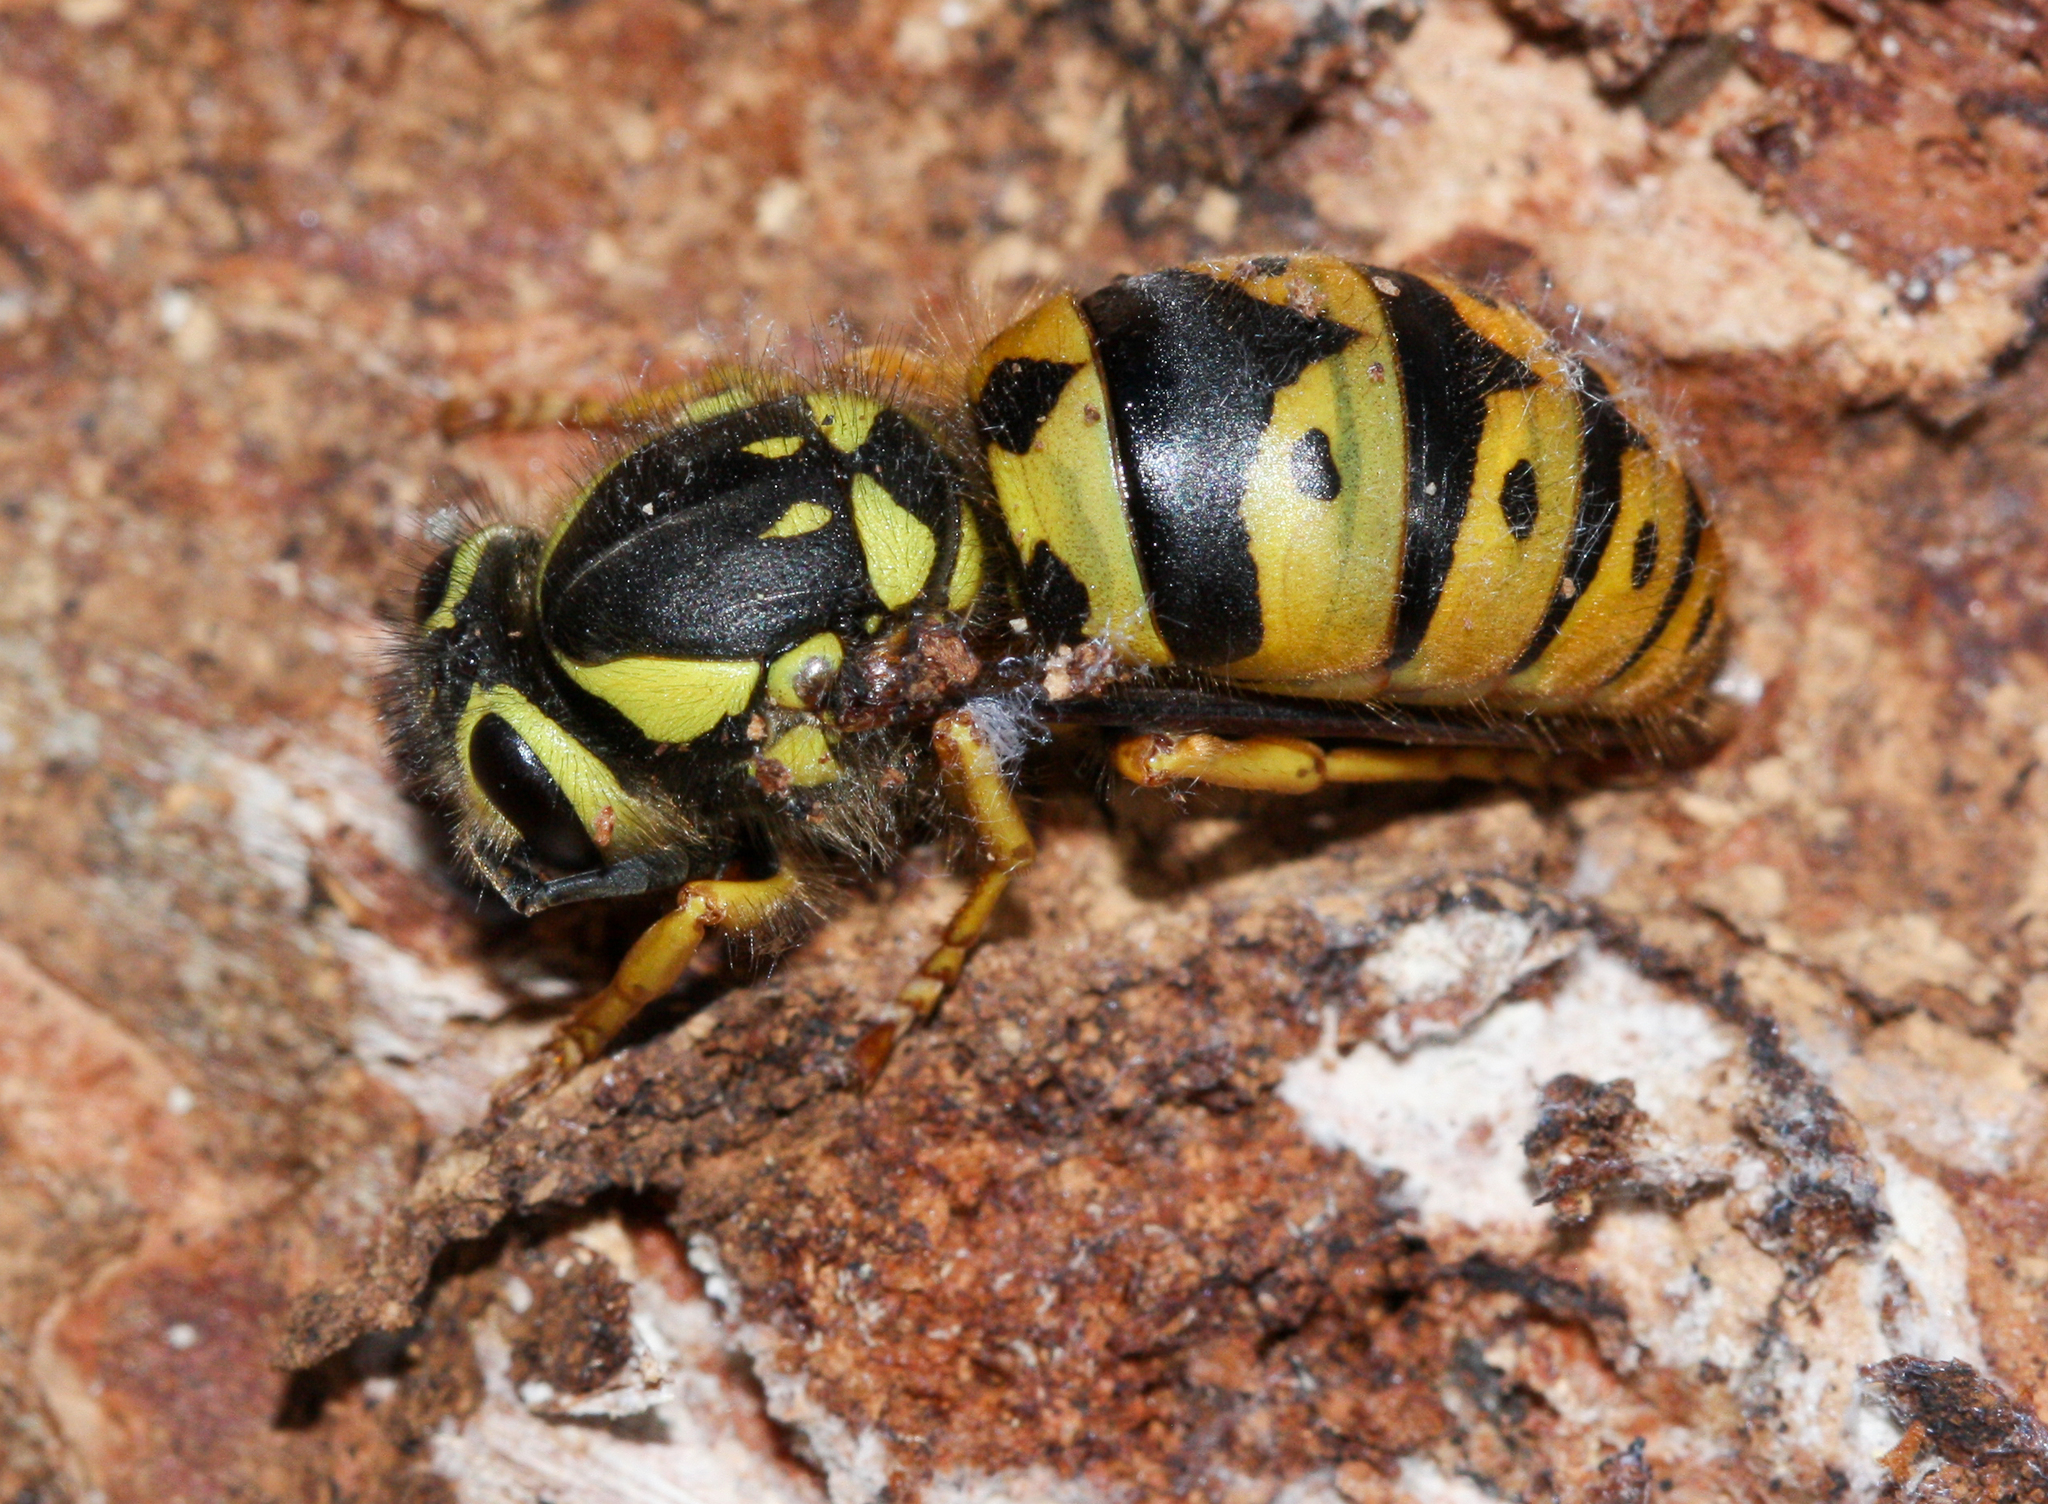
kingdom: Animalia
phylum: Arthropoda
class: Insecta
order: Hymenoptera
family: Vespidae
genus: Vespula
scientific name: Vespula pensylvanica
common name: Western yellowjacket
